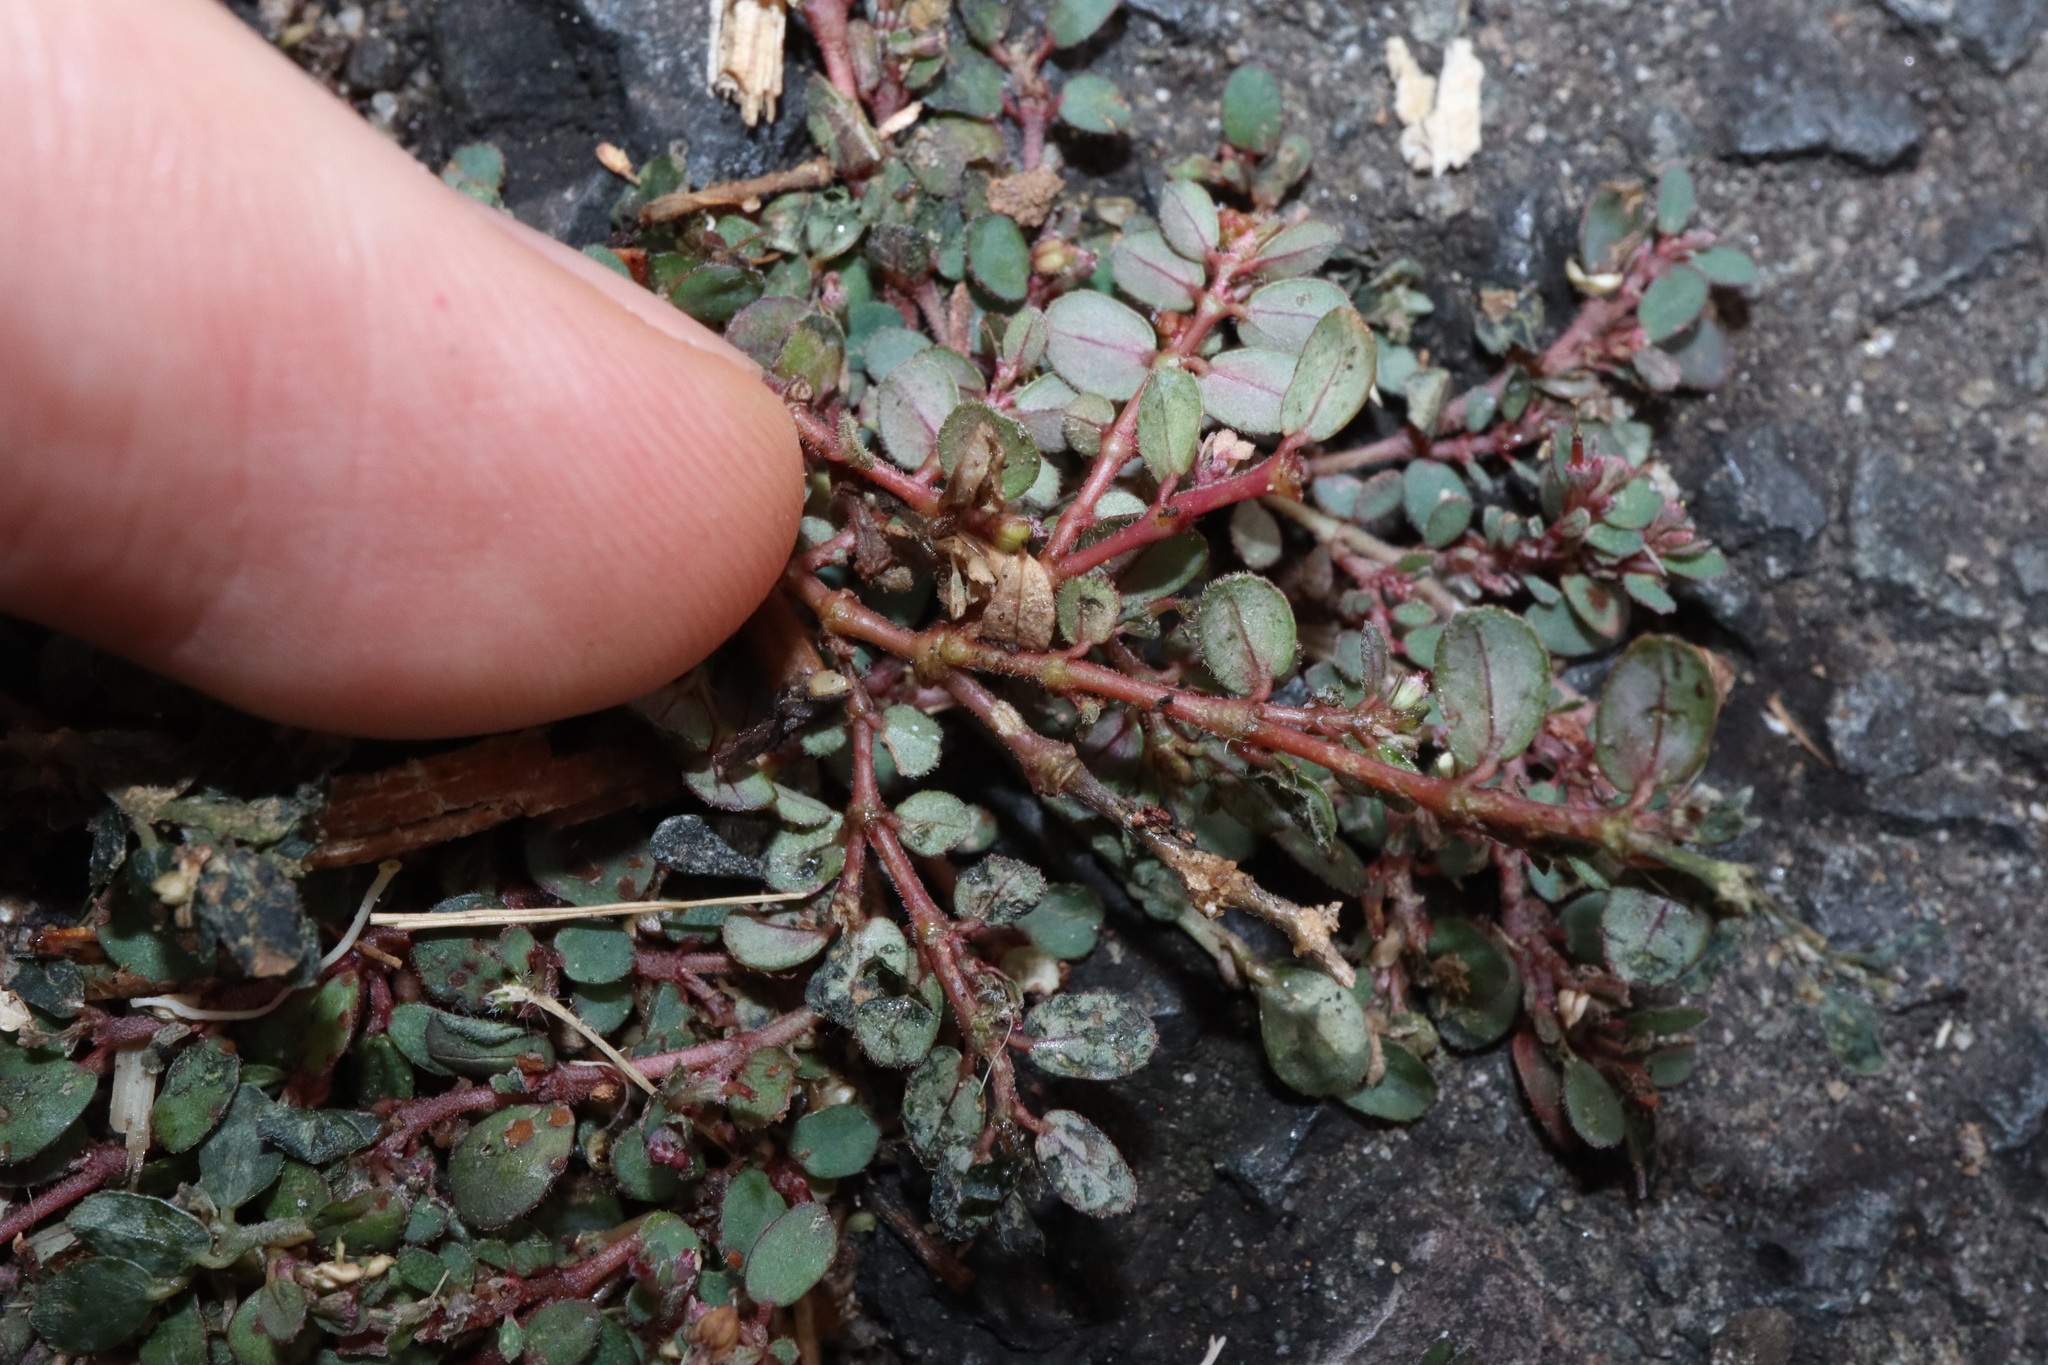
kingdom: Plantae
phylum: Tracheophyta
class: Magnoliopsida
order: Malpighiales
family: Euphorbiaceae
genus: Euphorbia
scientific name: Euphorbia prostrata
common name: Prostrate sandmat
